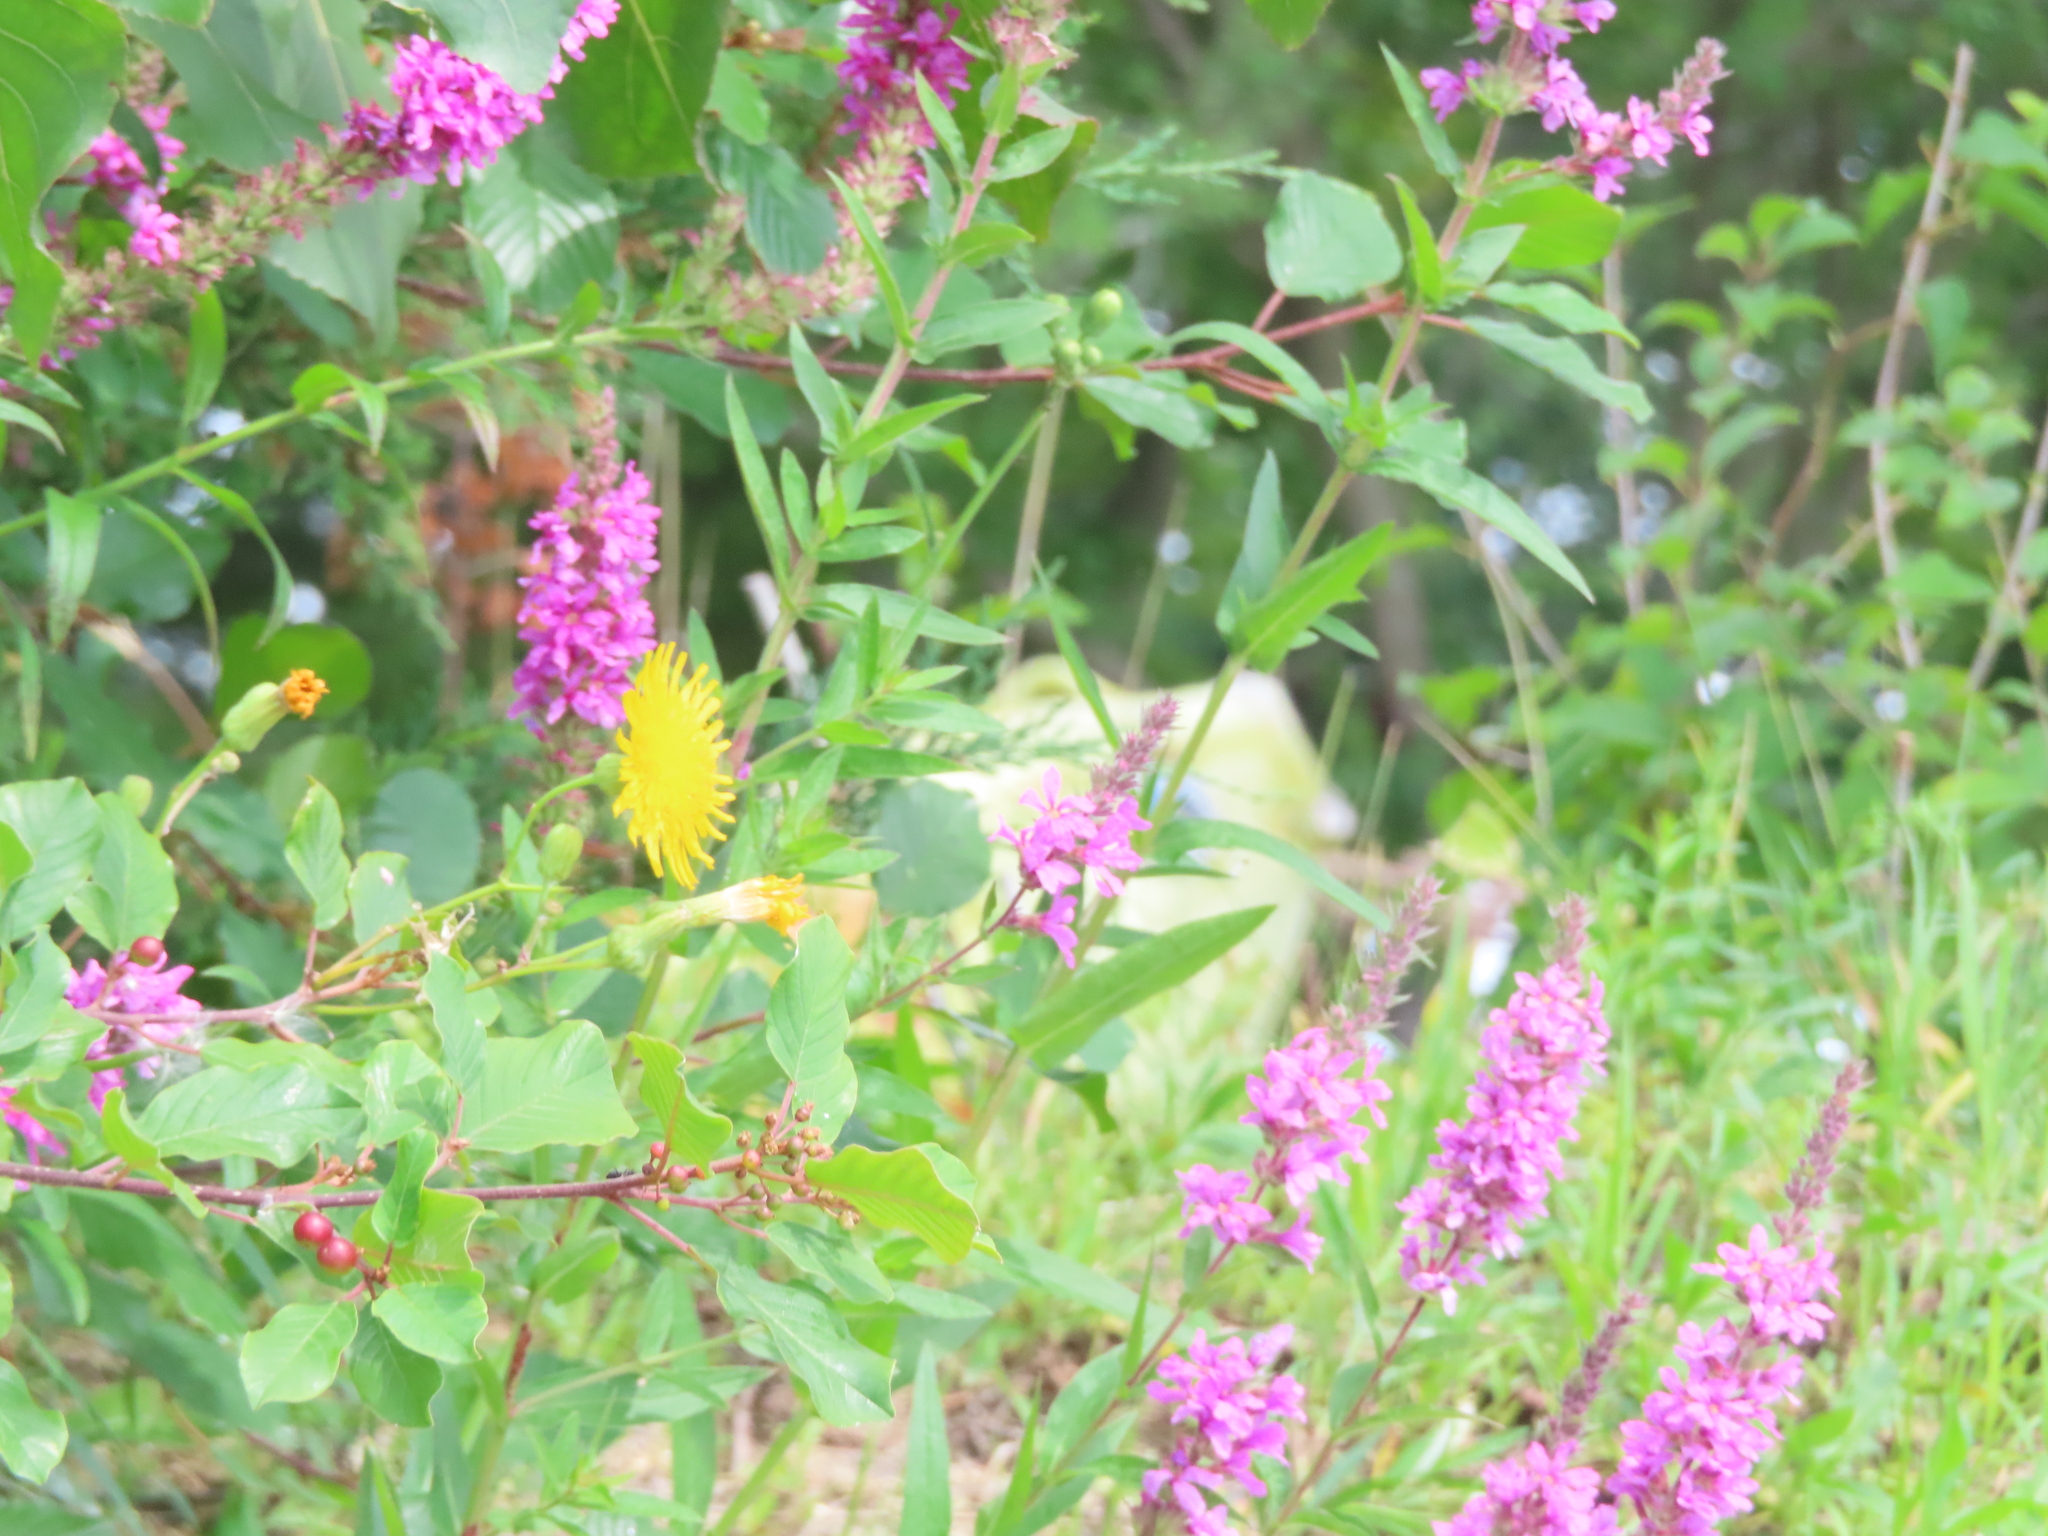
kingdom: Plantae
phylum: Tracheophyta
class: Magnoliopsida
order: Myrtales
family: Lythraceae
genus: Lythrum
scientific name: Lythrum salicaria
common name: Purple loosestrife
